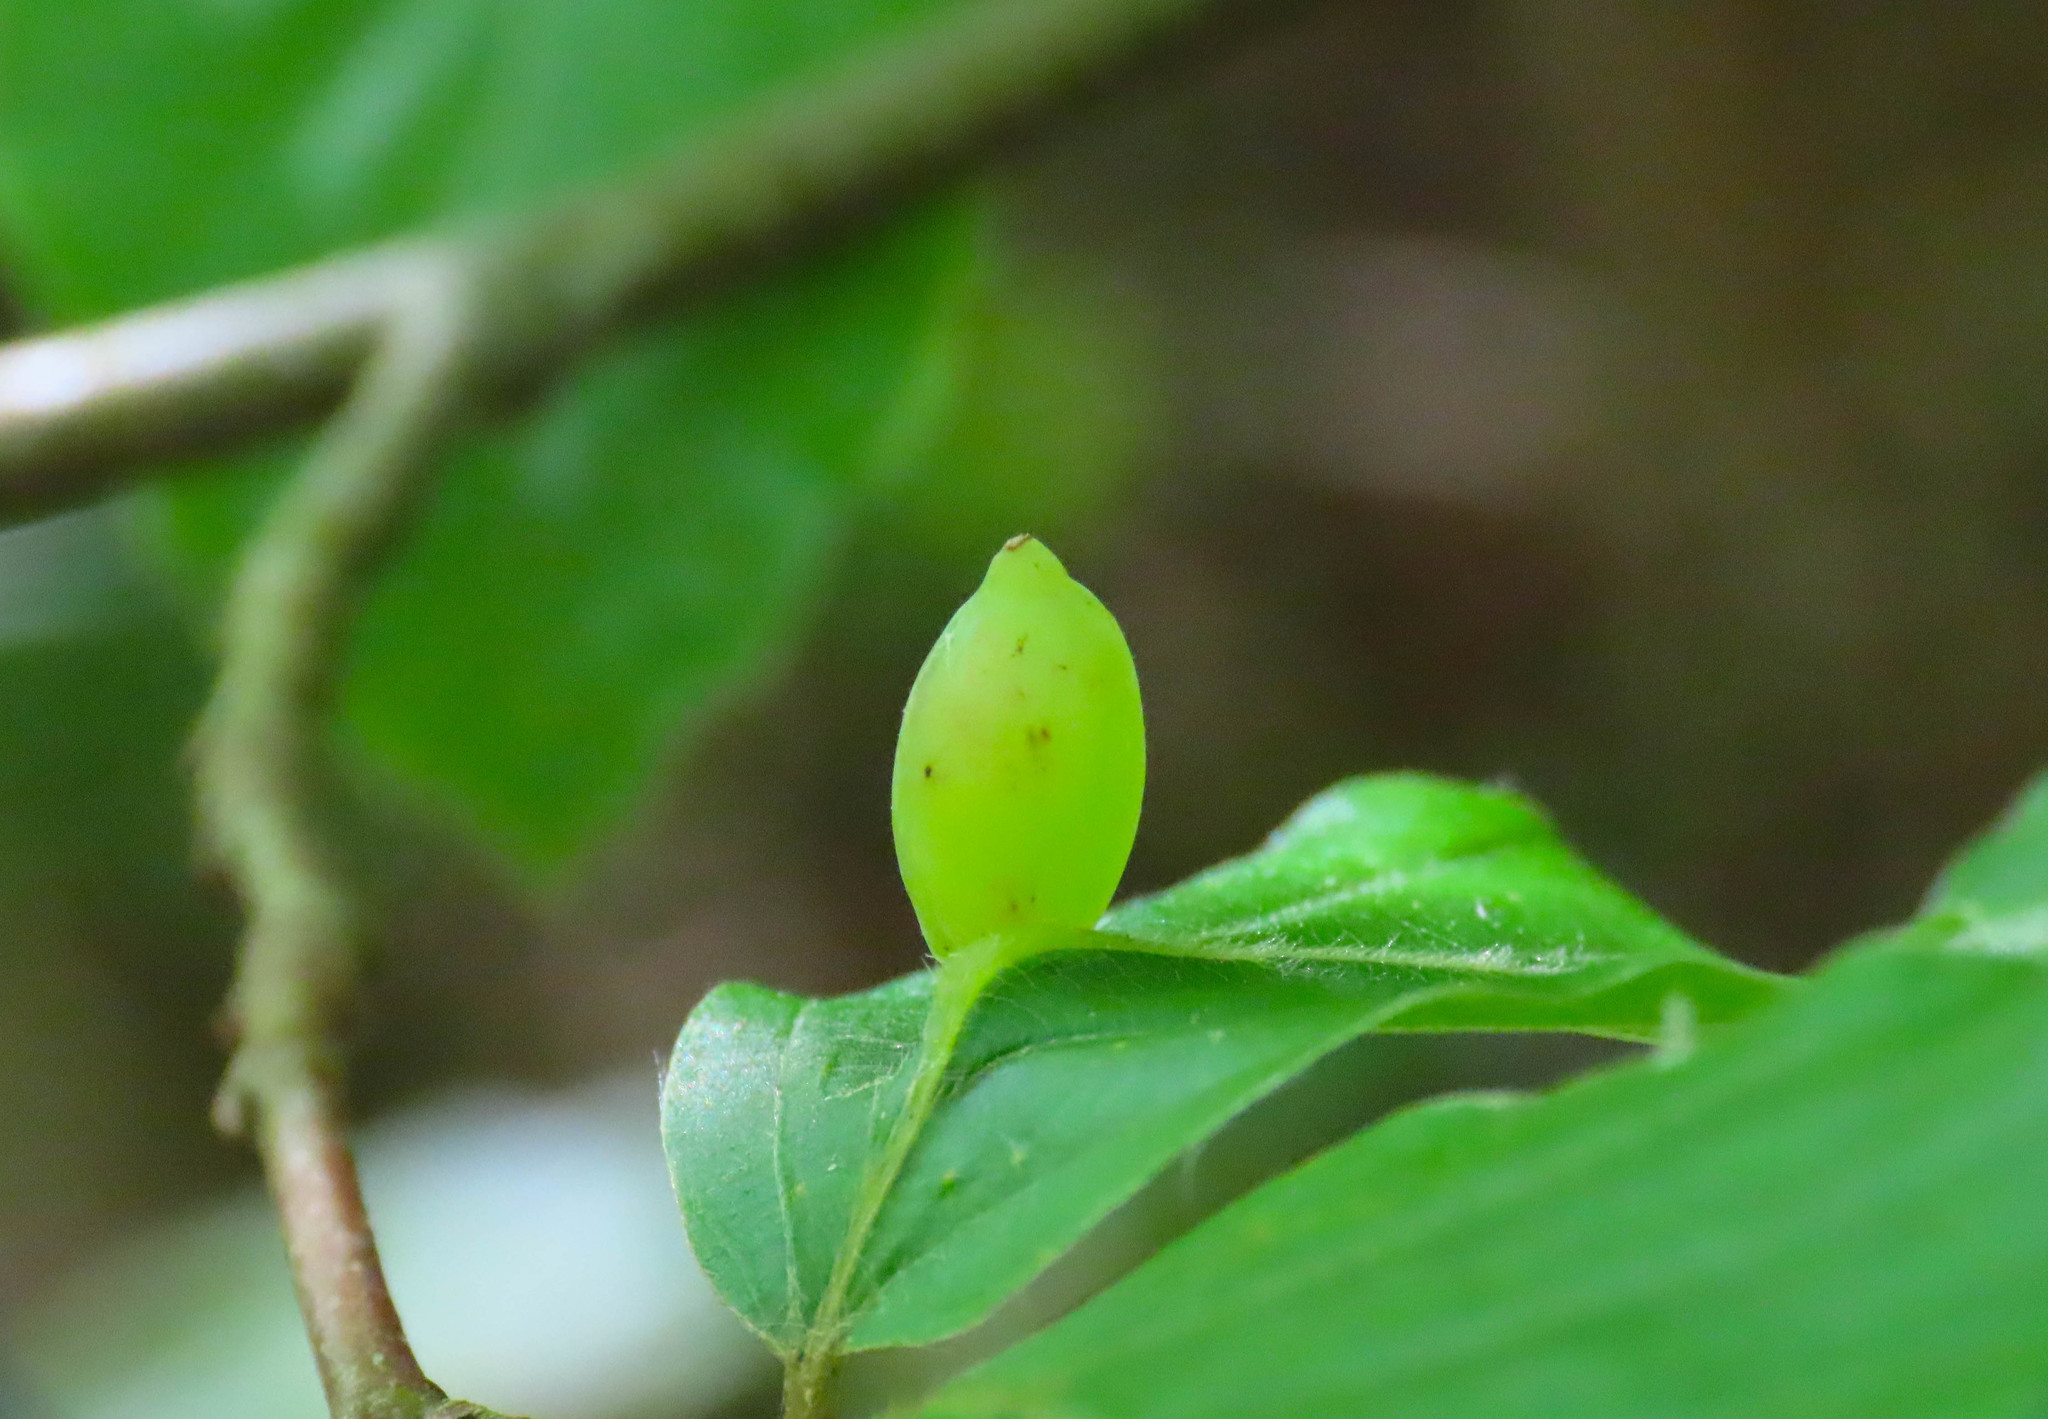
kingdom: Animalia
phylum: Arthropoda
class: Insecta
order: Diptera
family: Cecidomyiidae
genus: Mikiola
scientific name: Mikiola fagi
